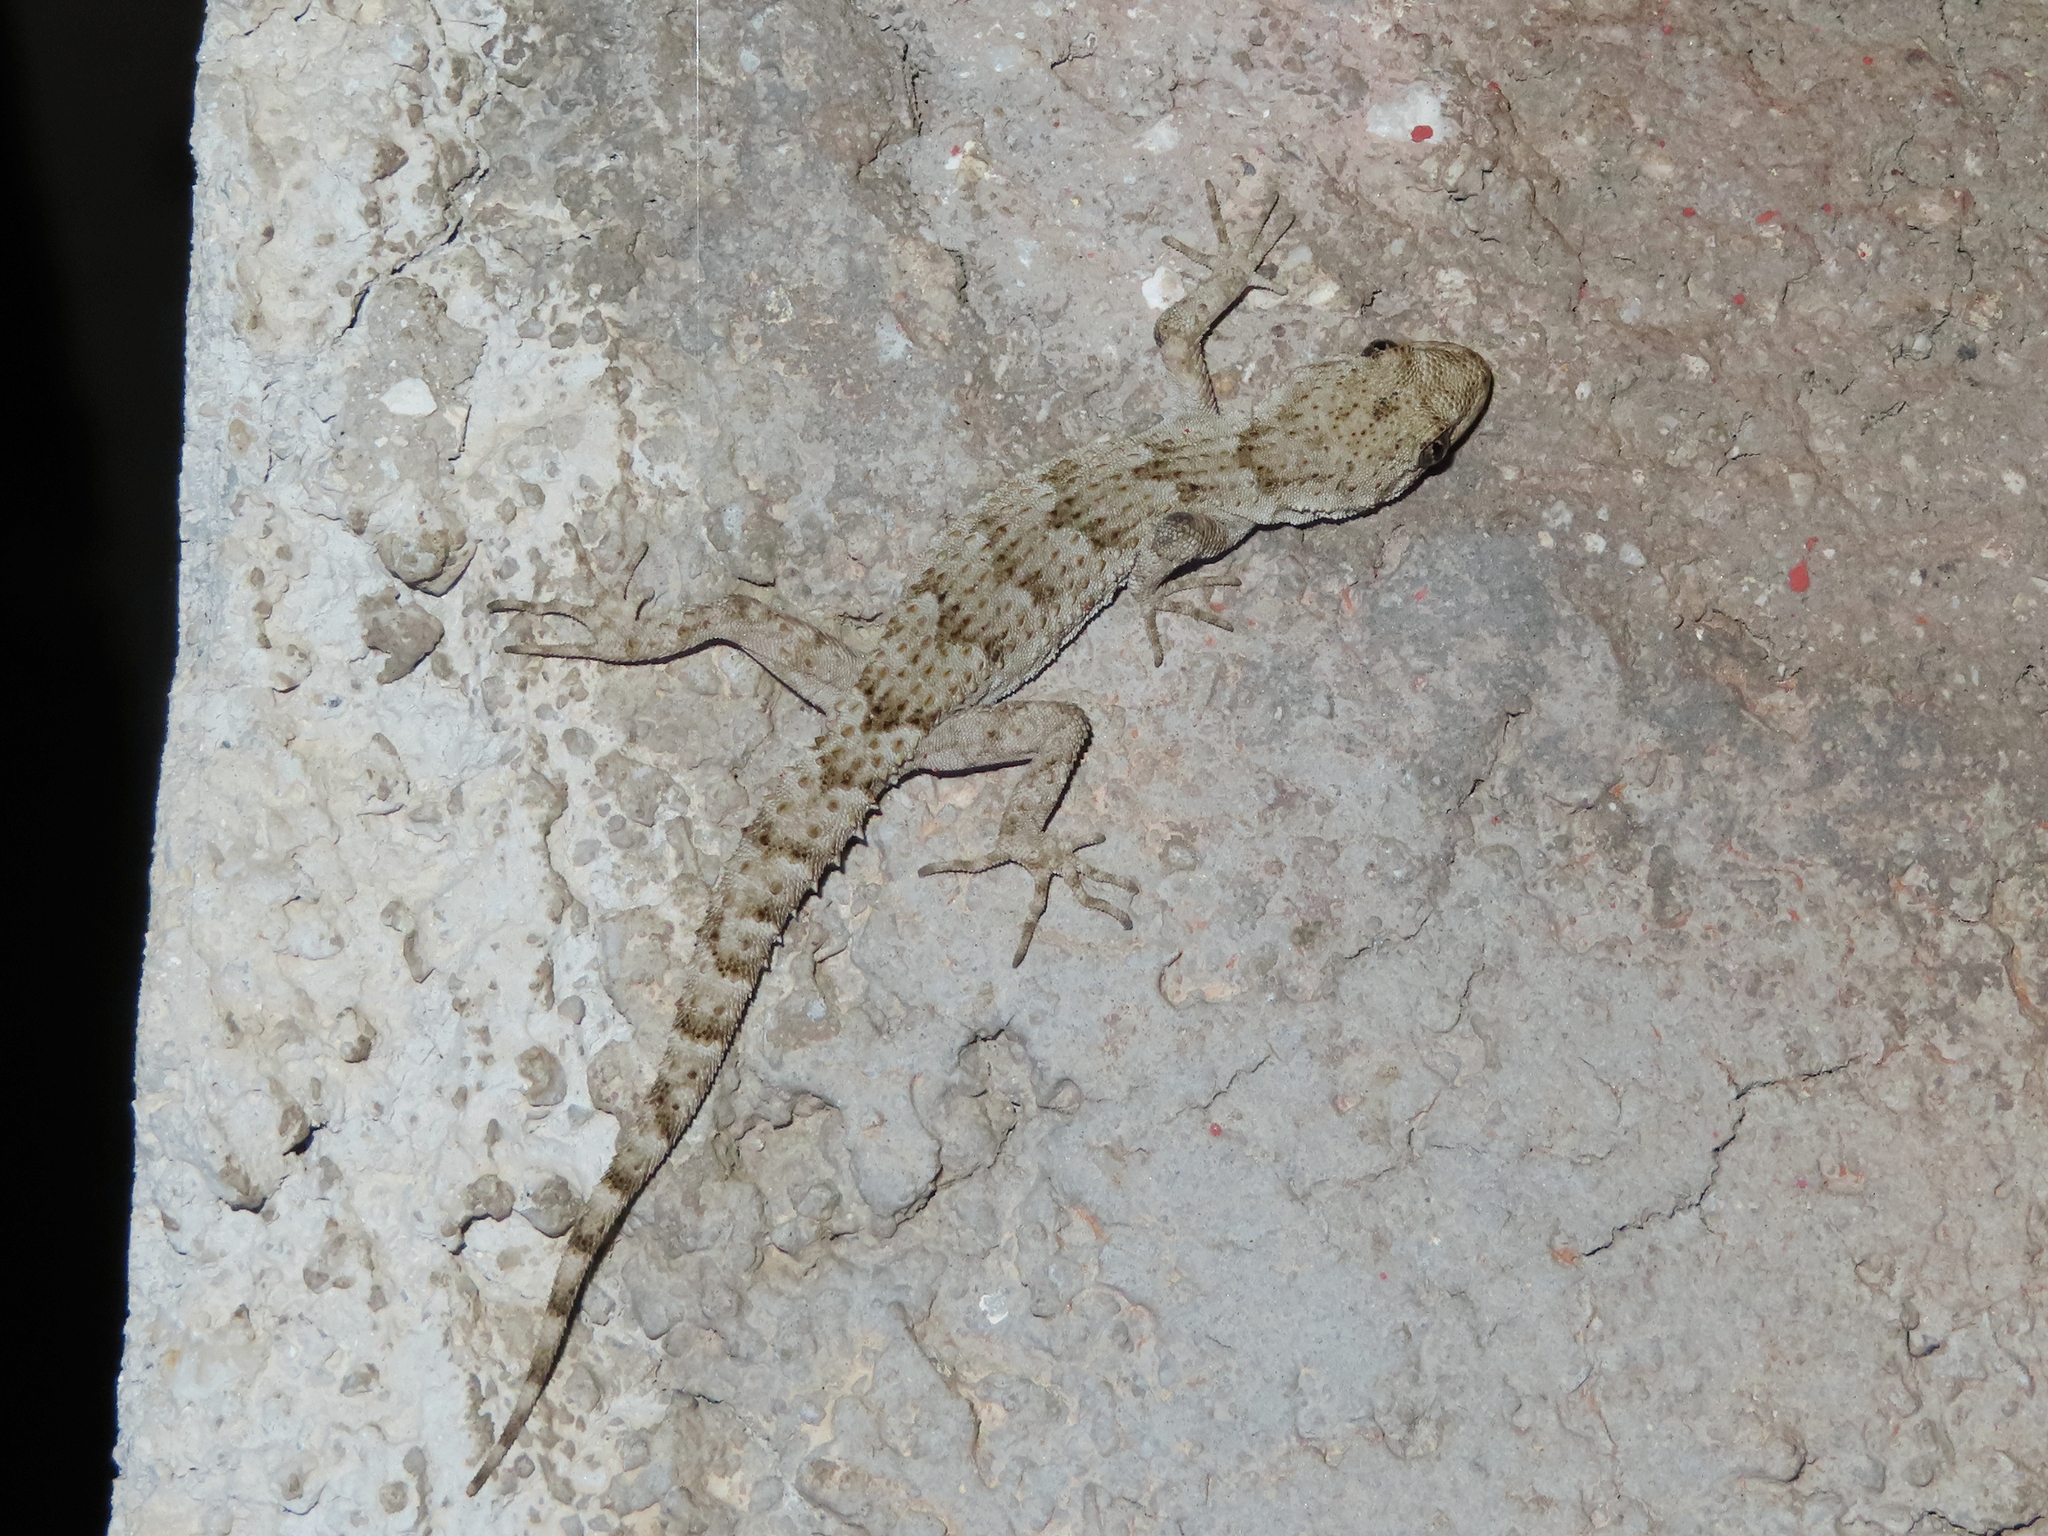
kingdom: Animalia
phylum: Chordata
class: Squamata
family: Gekkonidae
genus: Mediodactylus
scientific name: Mediodactylus kotschyi
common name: Kotschy's gecko
